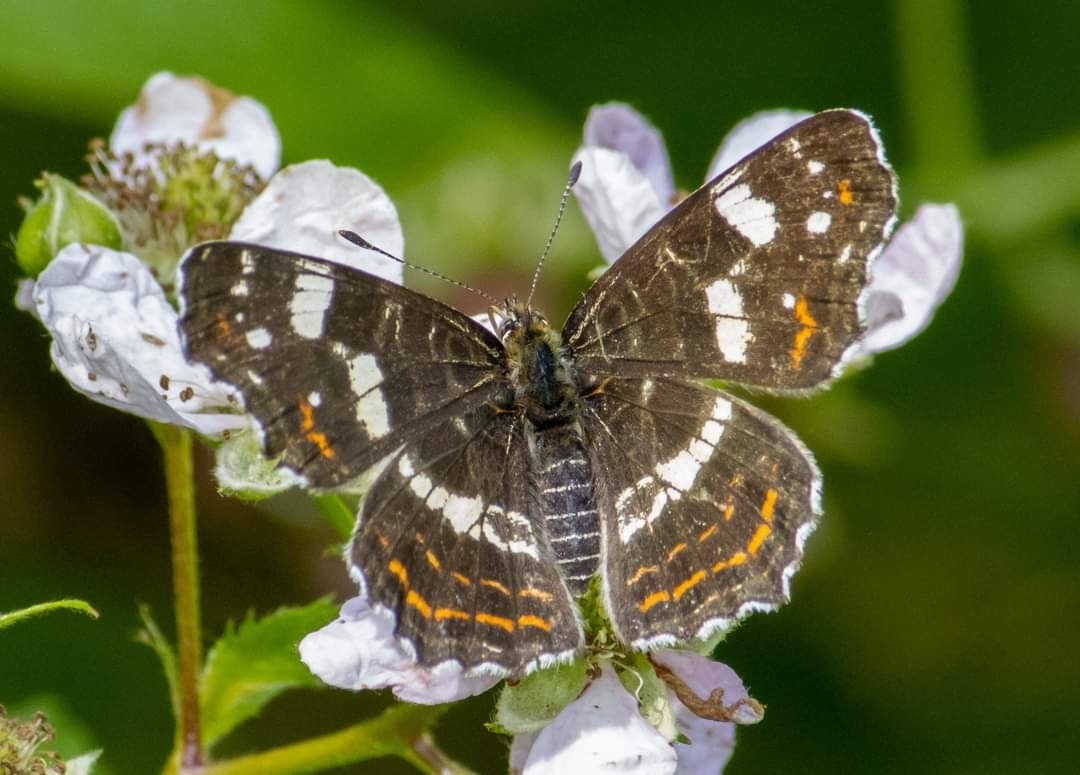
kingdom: Animalia
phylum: Arthropoda
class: Insecta
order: Lepidoptera
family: Nymphalidae
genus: Araschnia
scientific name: Araschnia levana
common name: Map butterfly
